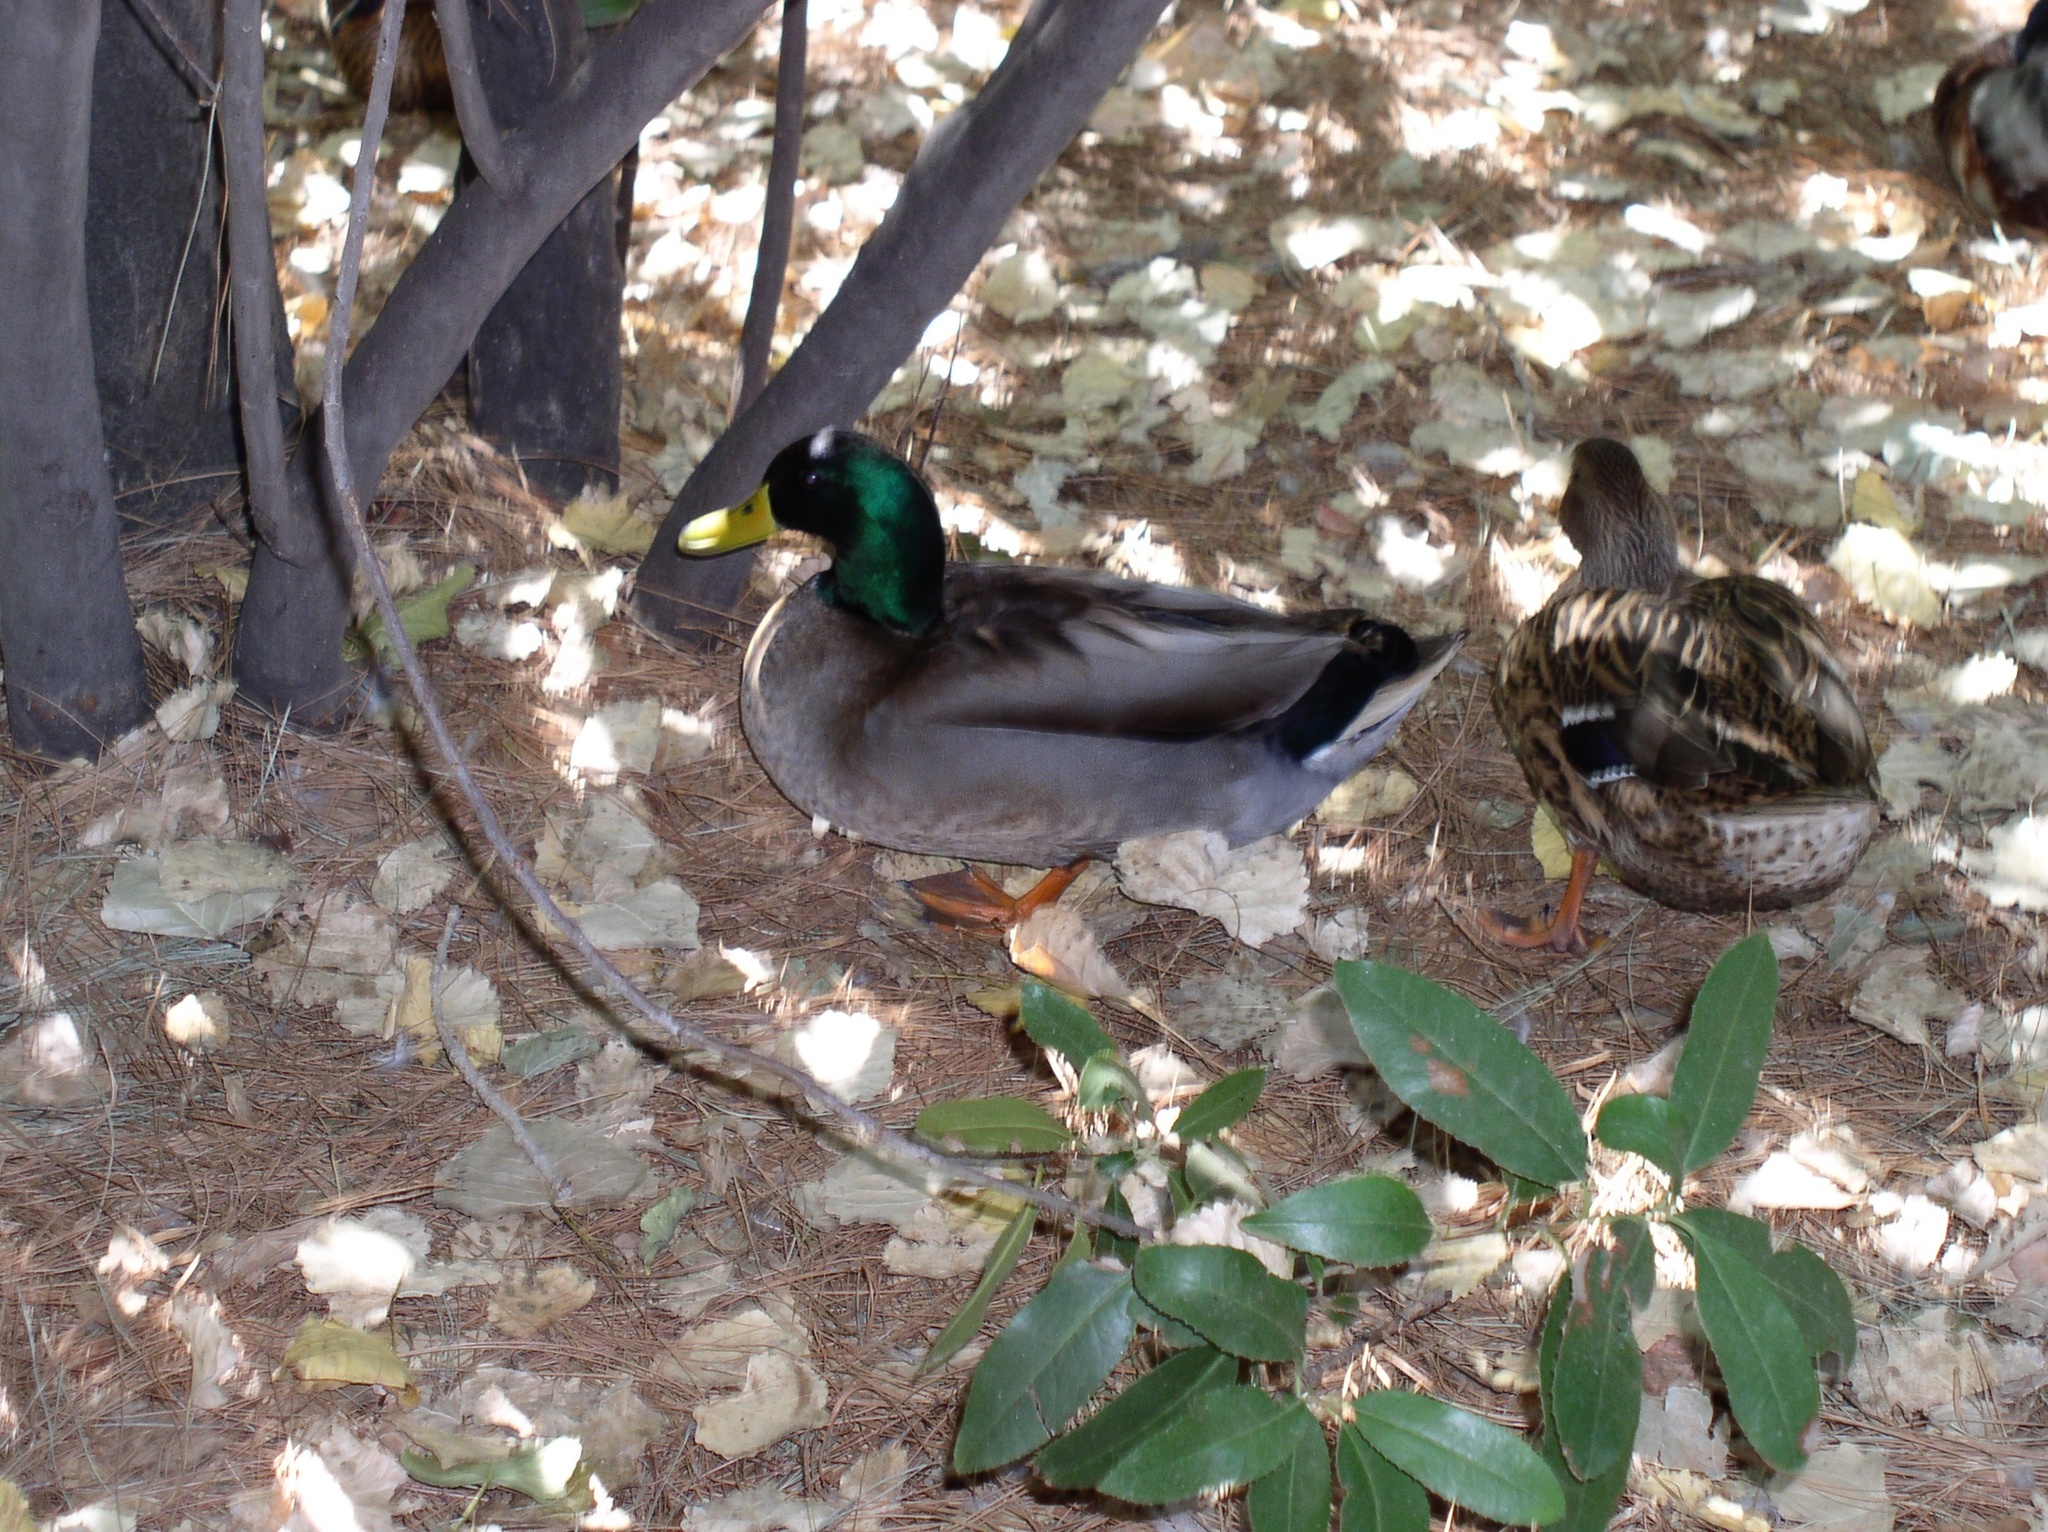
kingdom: Animalia
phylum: Chordata
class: Aves
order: Anseriformes
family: Anatidae
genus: Anas
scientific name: Anas platyrhynchos
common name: Mallard
